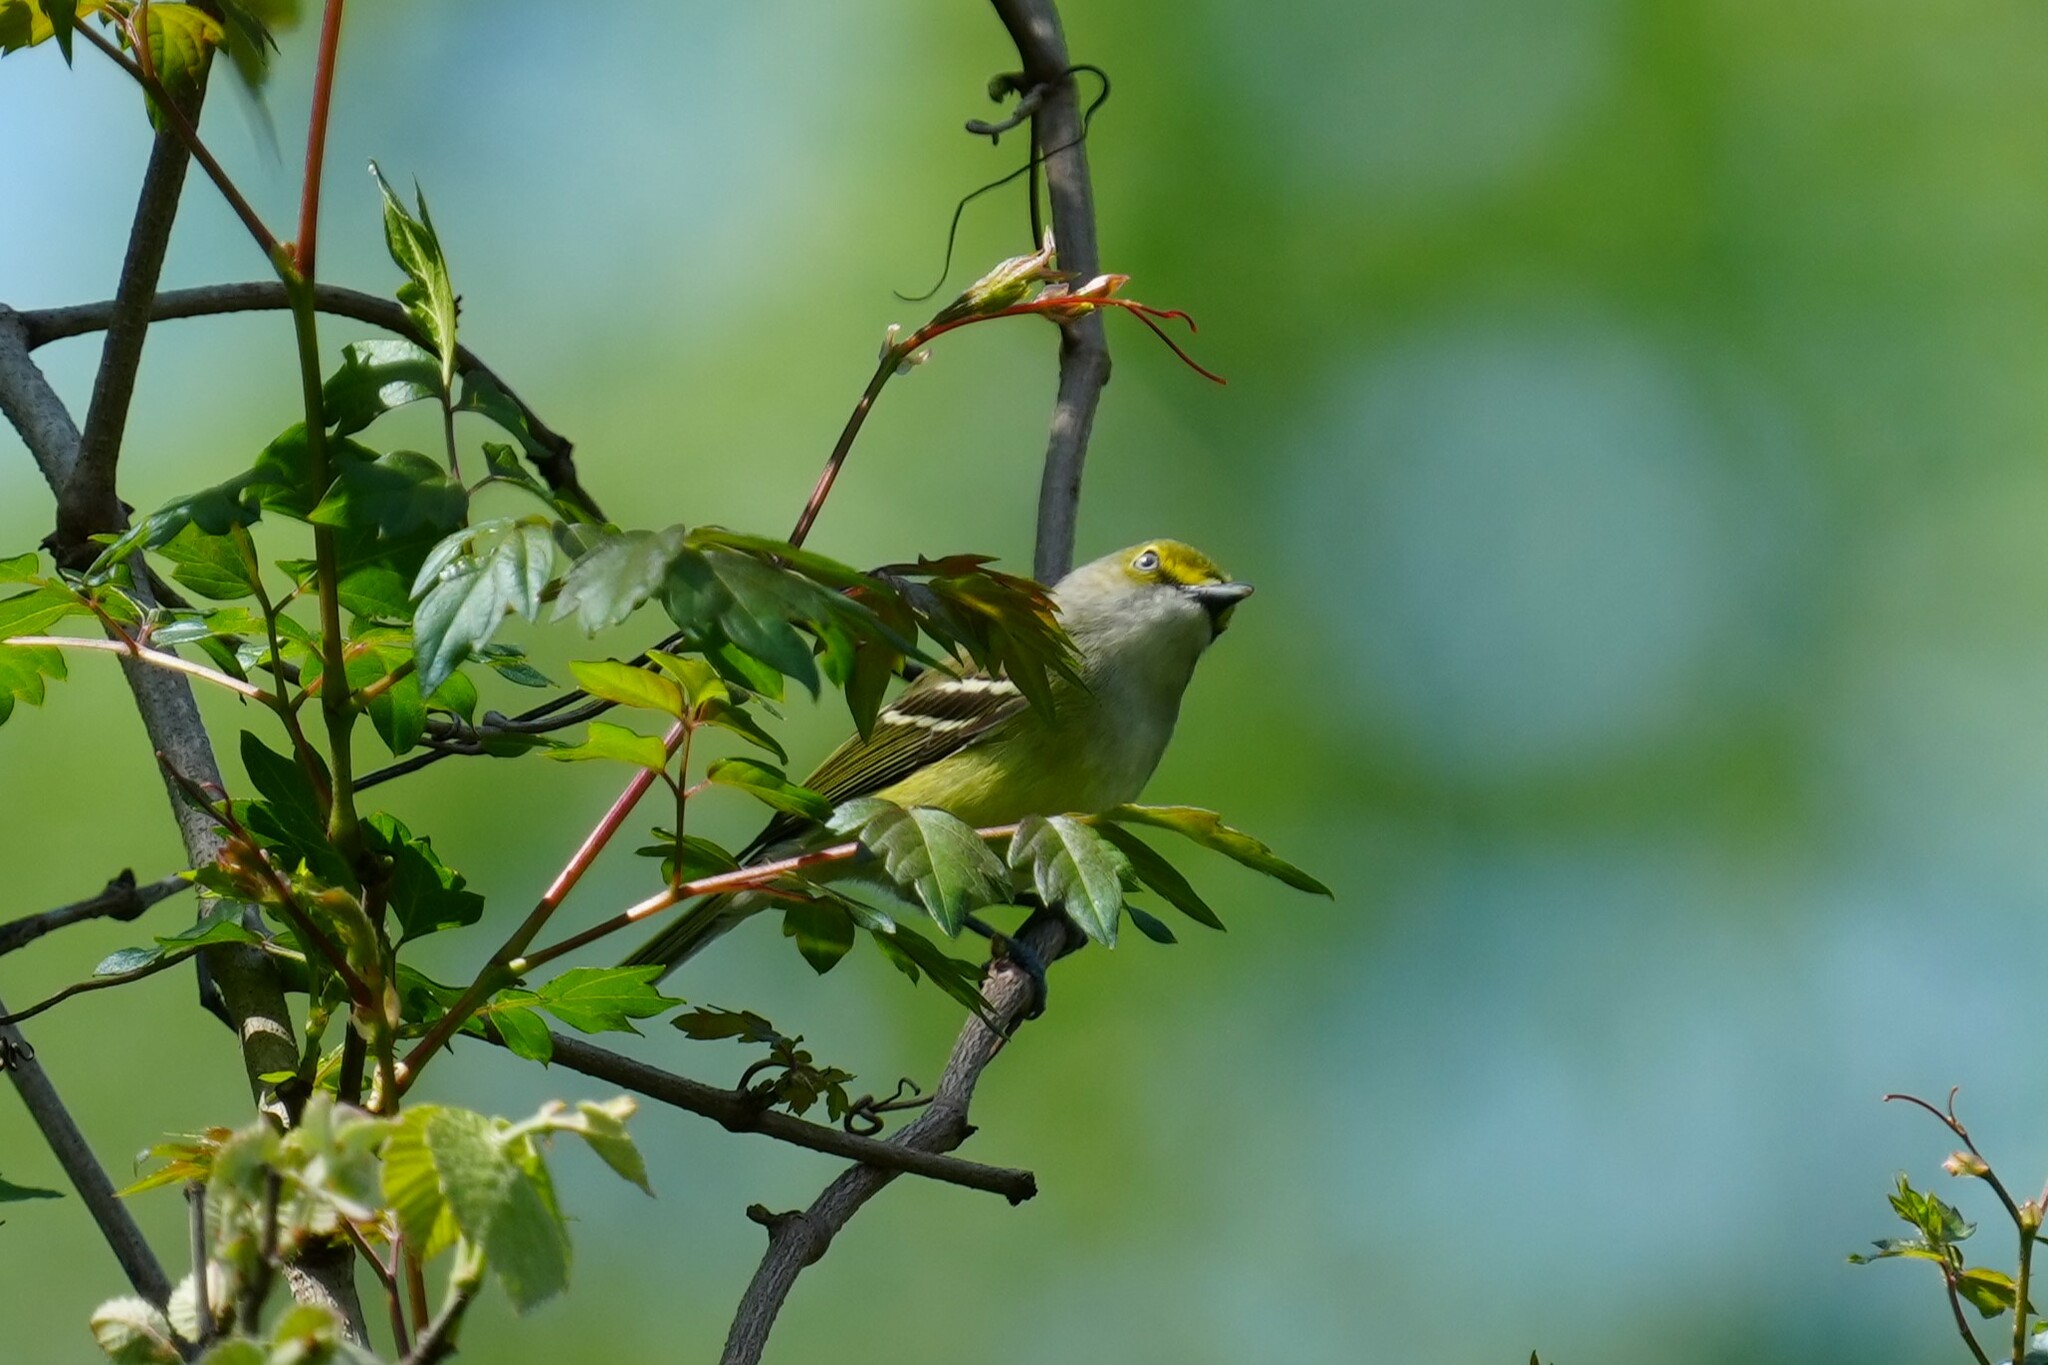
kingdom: Animalia
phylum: Chordata
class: Aves
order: Passeriformes
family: Vireonidae
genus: Vireo
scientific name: Vireo griseus
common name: White-eyed vireo
